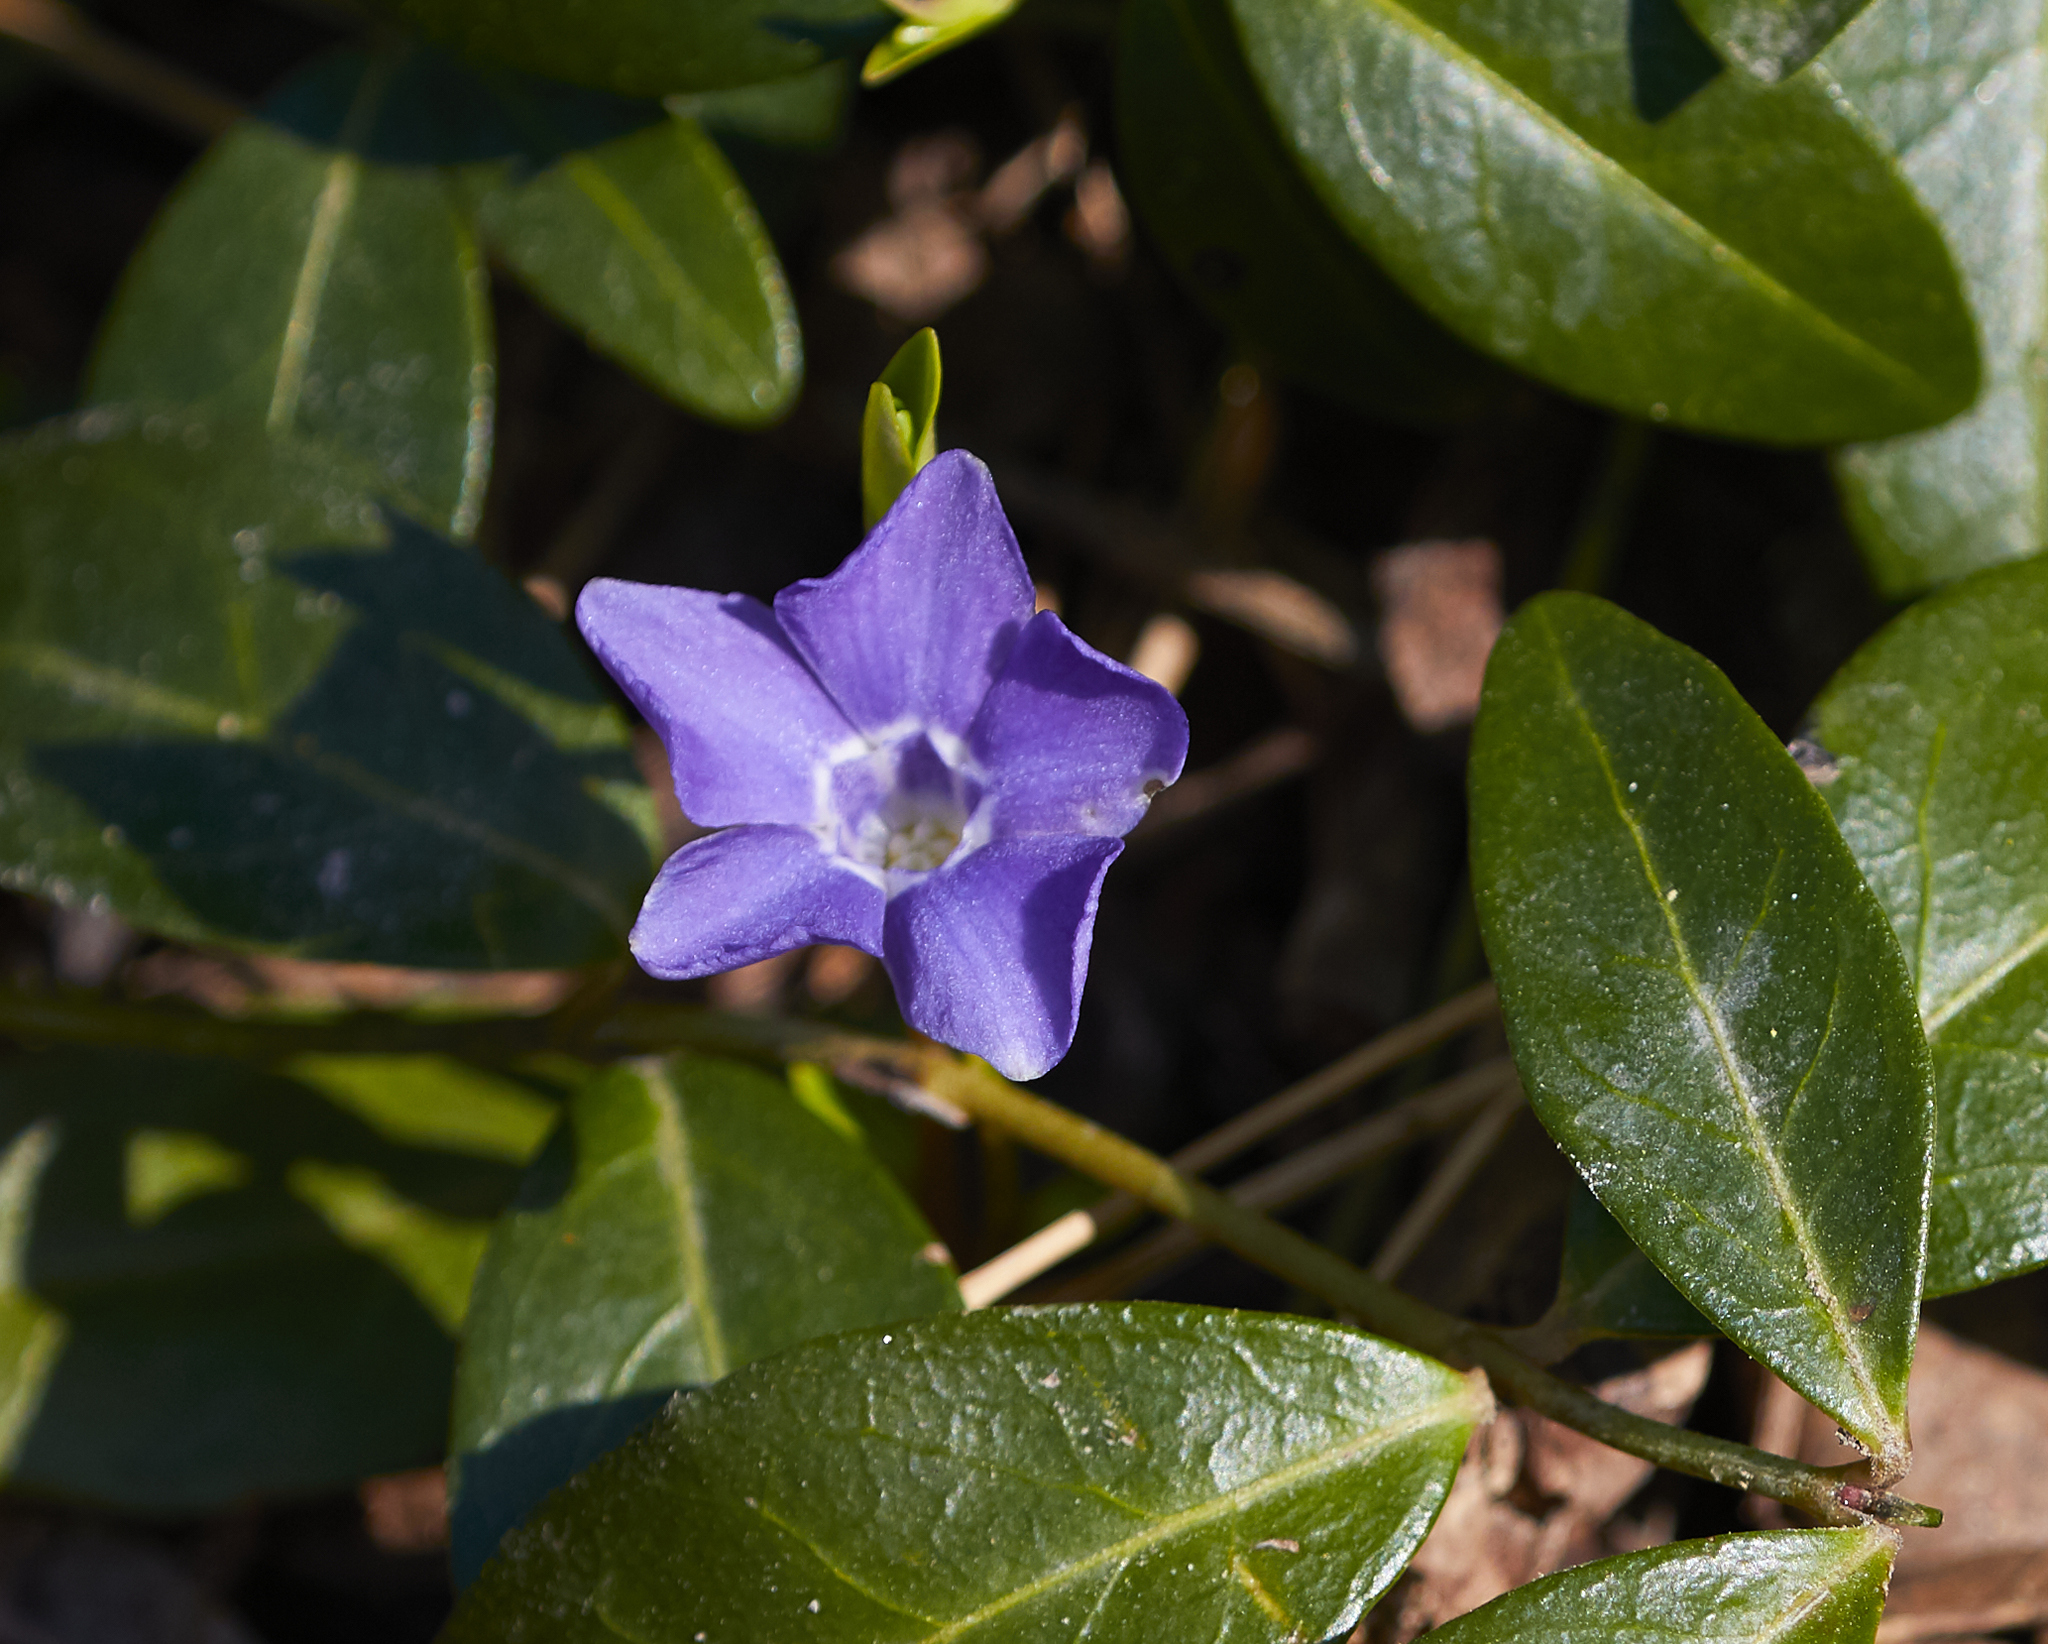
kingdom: Plantae
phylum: Tracheophyta
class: Magnoliopsida
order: Gentianales
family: Apocynaceae
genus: Vinca
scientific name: Vinca minor
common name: Lesser periwinkle
